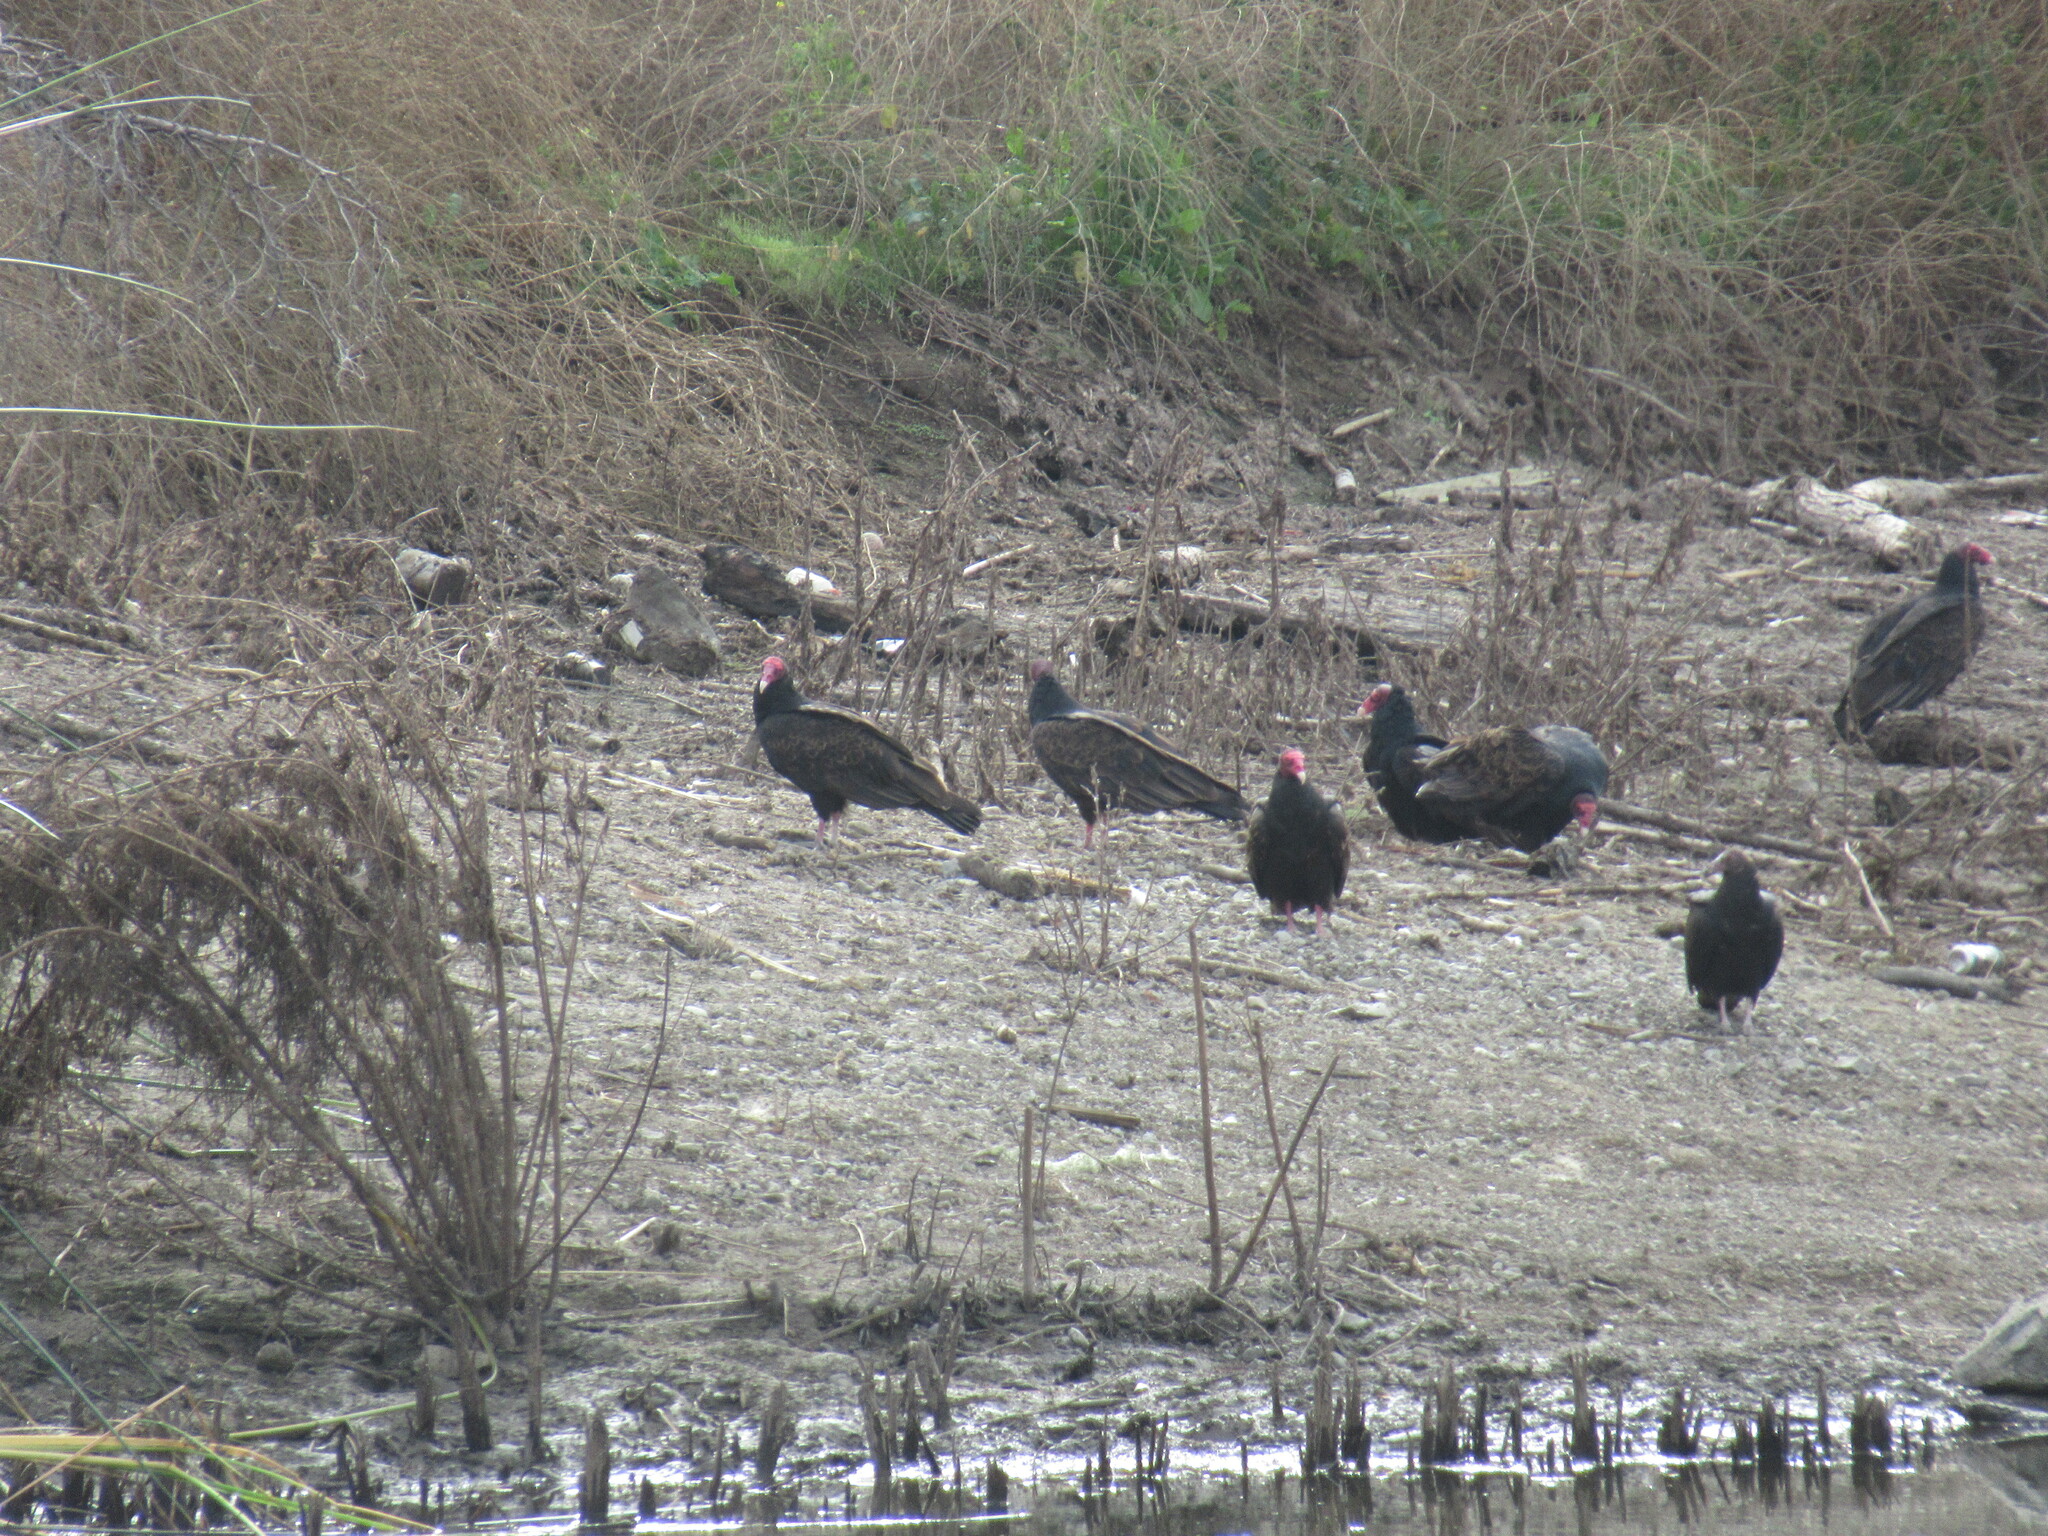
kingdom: Animalia
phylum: Chordata
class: Aves
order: Accipitriformes
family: Cathartidae
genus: Cathartes
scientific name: Cathartes aura
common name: Turkey vulture
